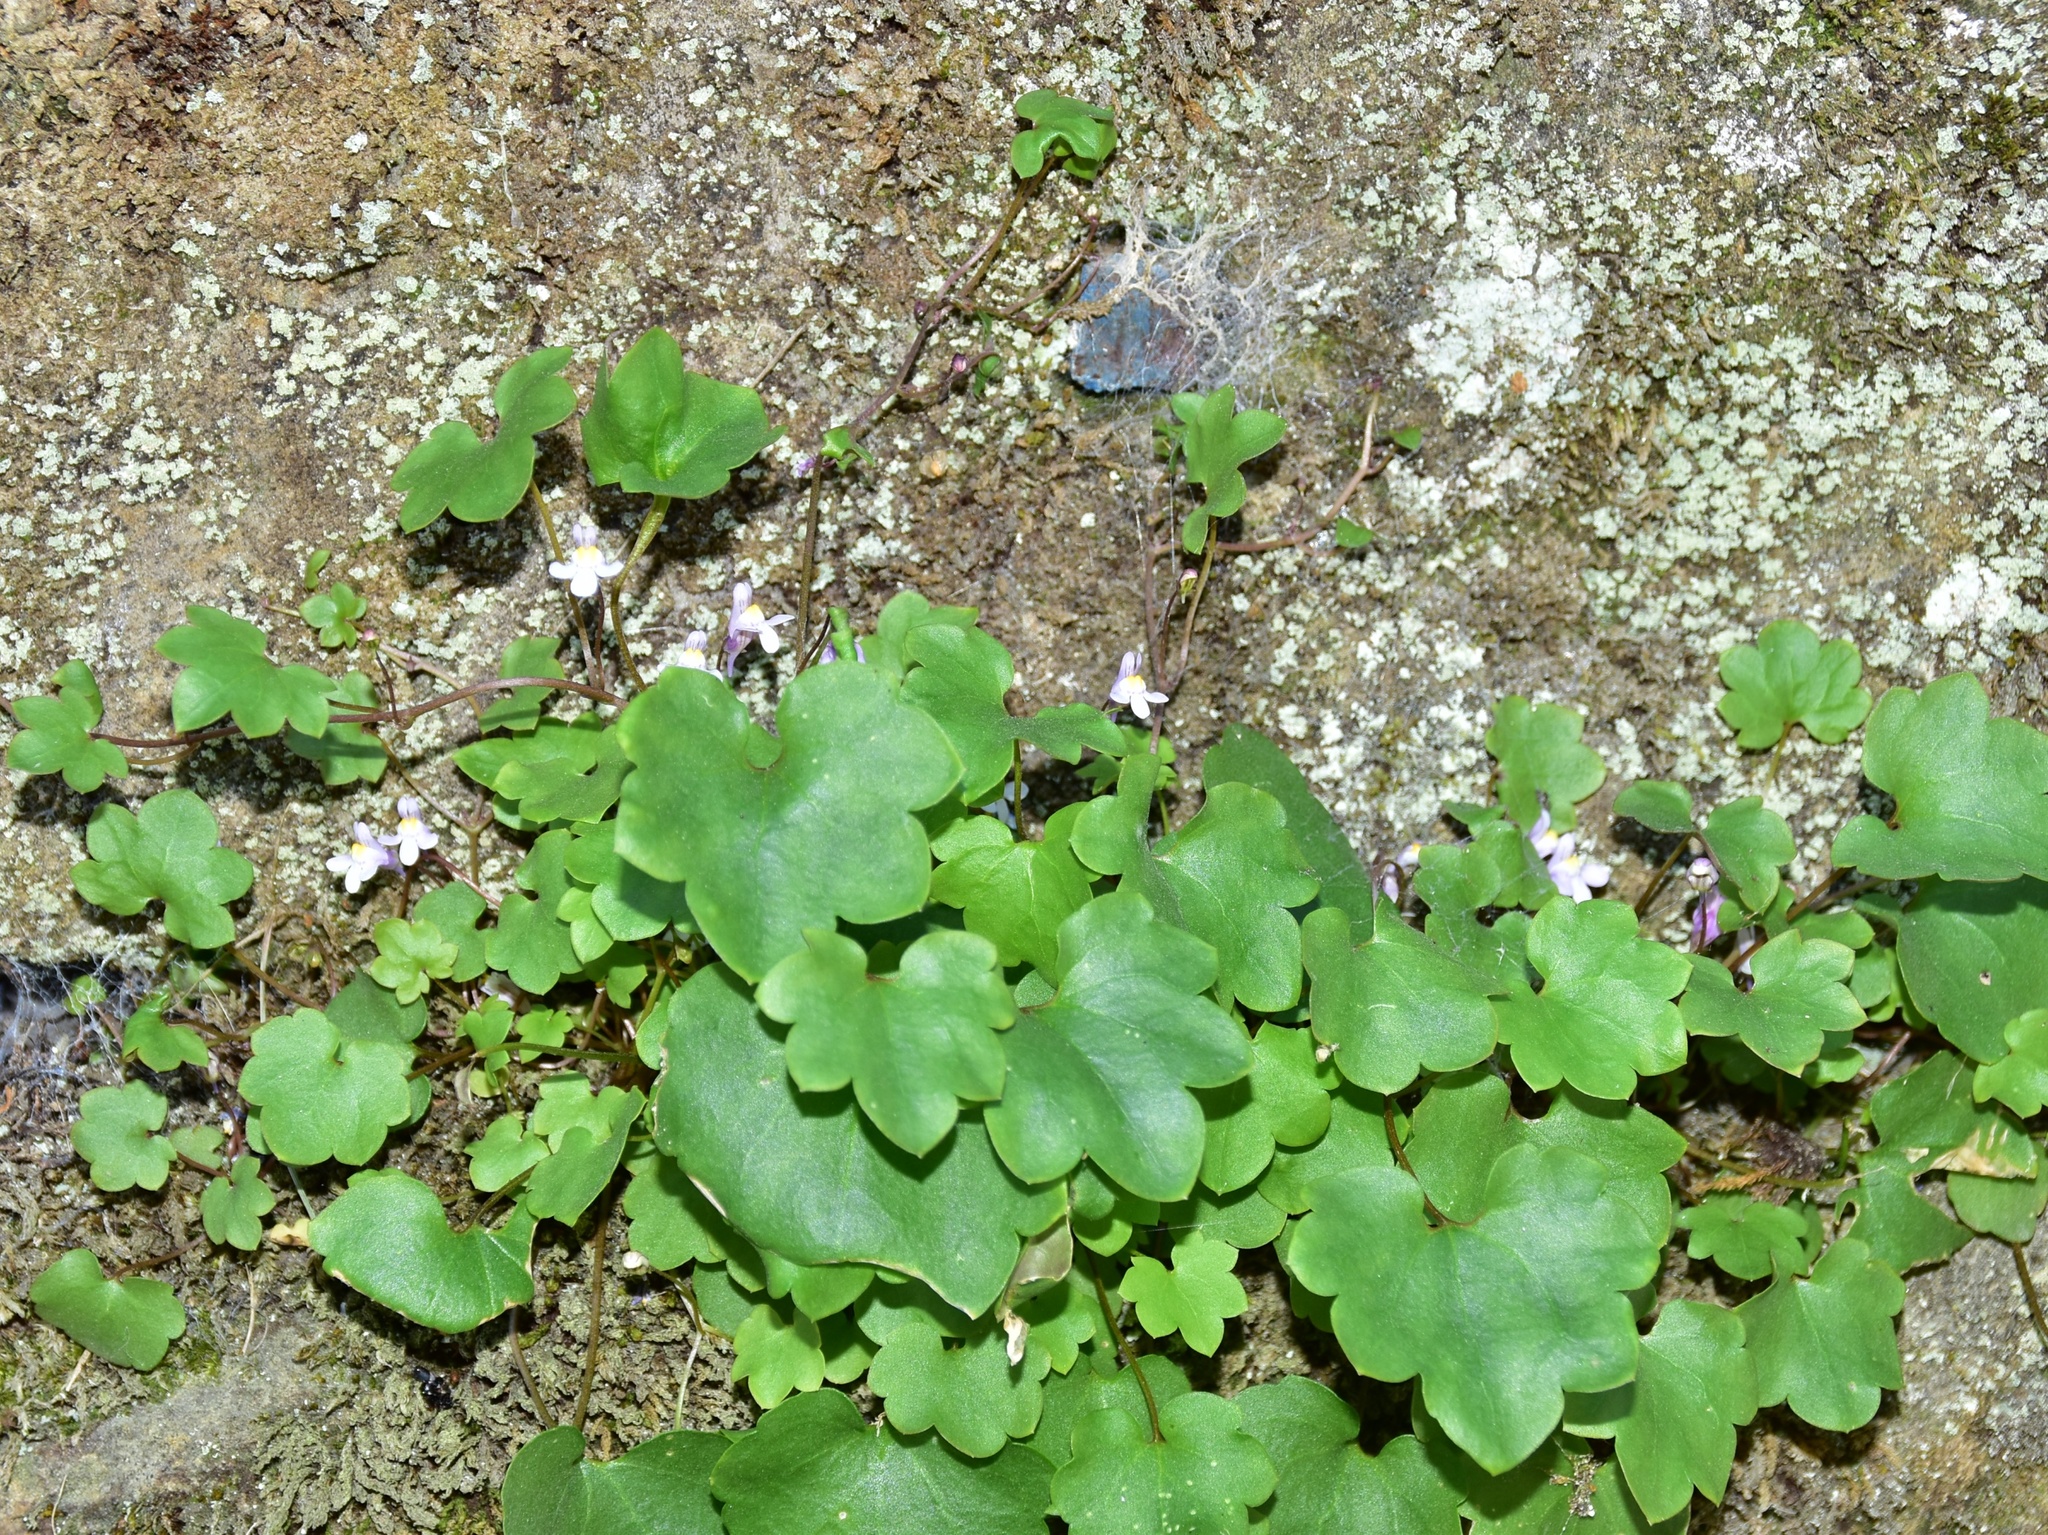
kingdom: Plantae
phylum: Tracheophyta
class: Magnoliopsida
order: Lamiales
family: Plantaginaceae
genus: Cymbalaria
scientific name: Cymbalaria muralis
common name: Ivy-leaved toadflax
